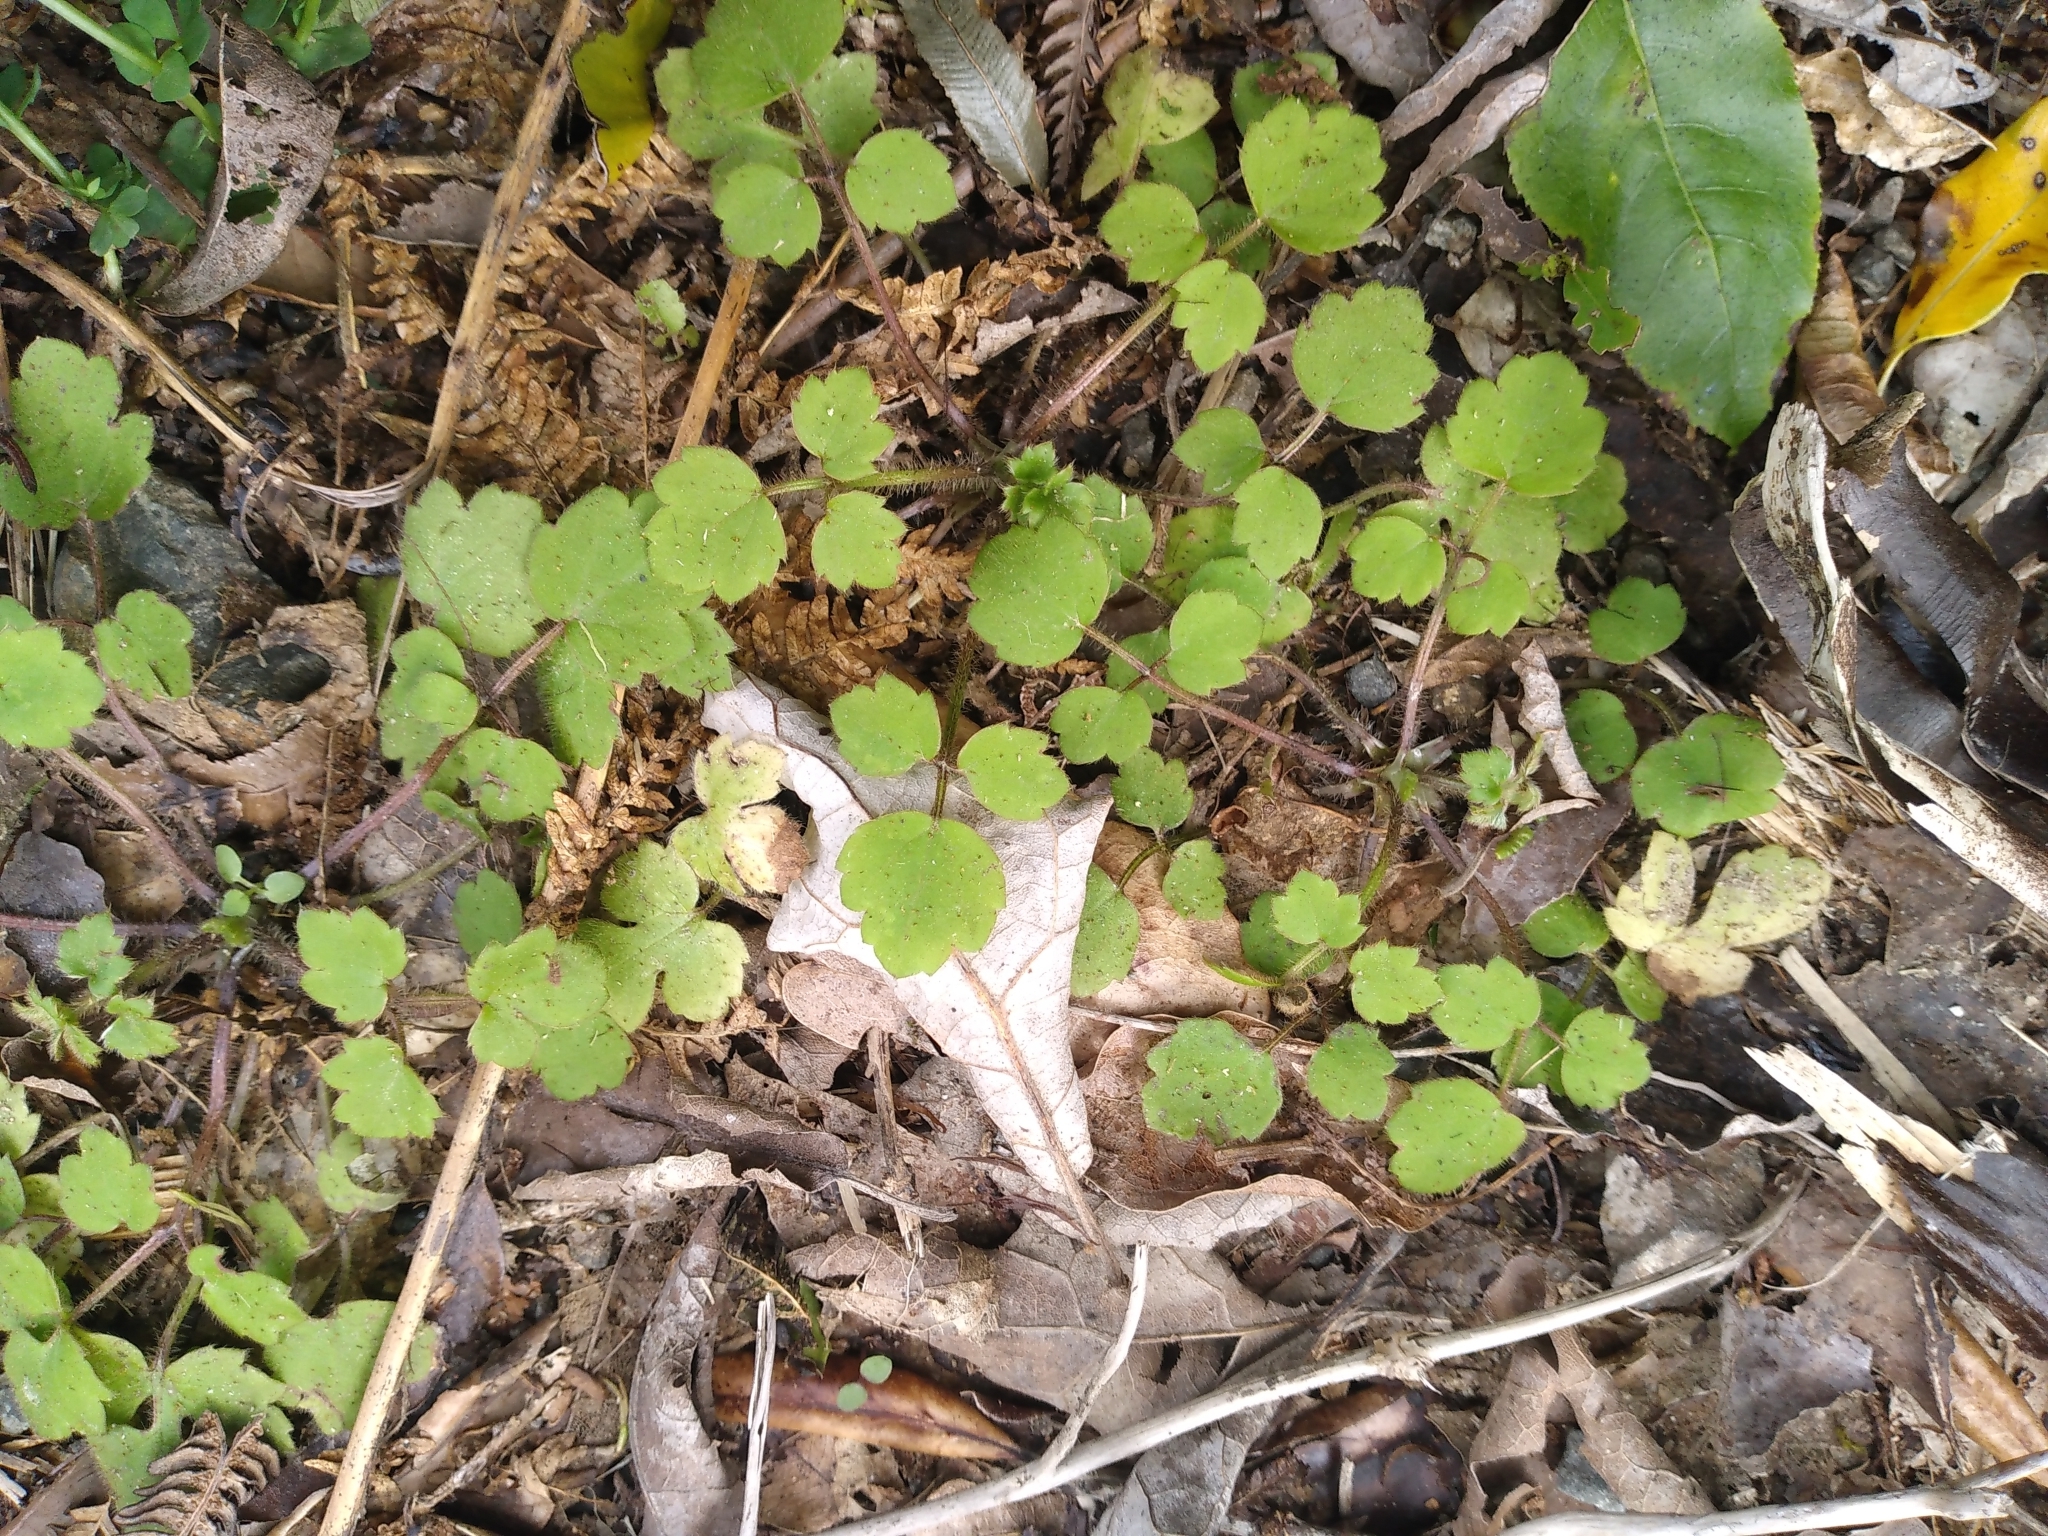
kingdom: Plantae
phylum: Tracheophyta
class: Magnoliopsida
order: Ranunculales
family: Ranunculaceae
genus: Ranunculus
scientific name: Ranunculus reflexus
